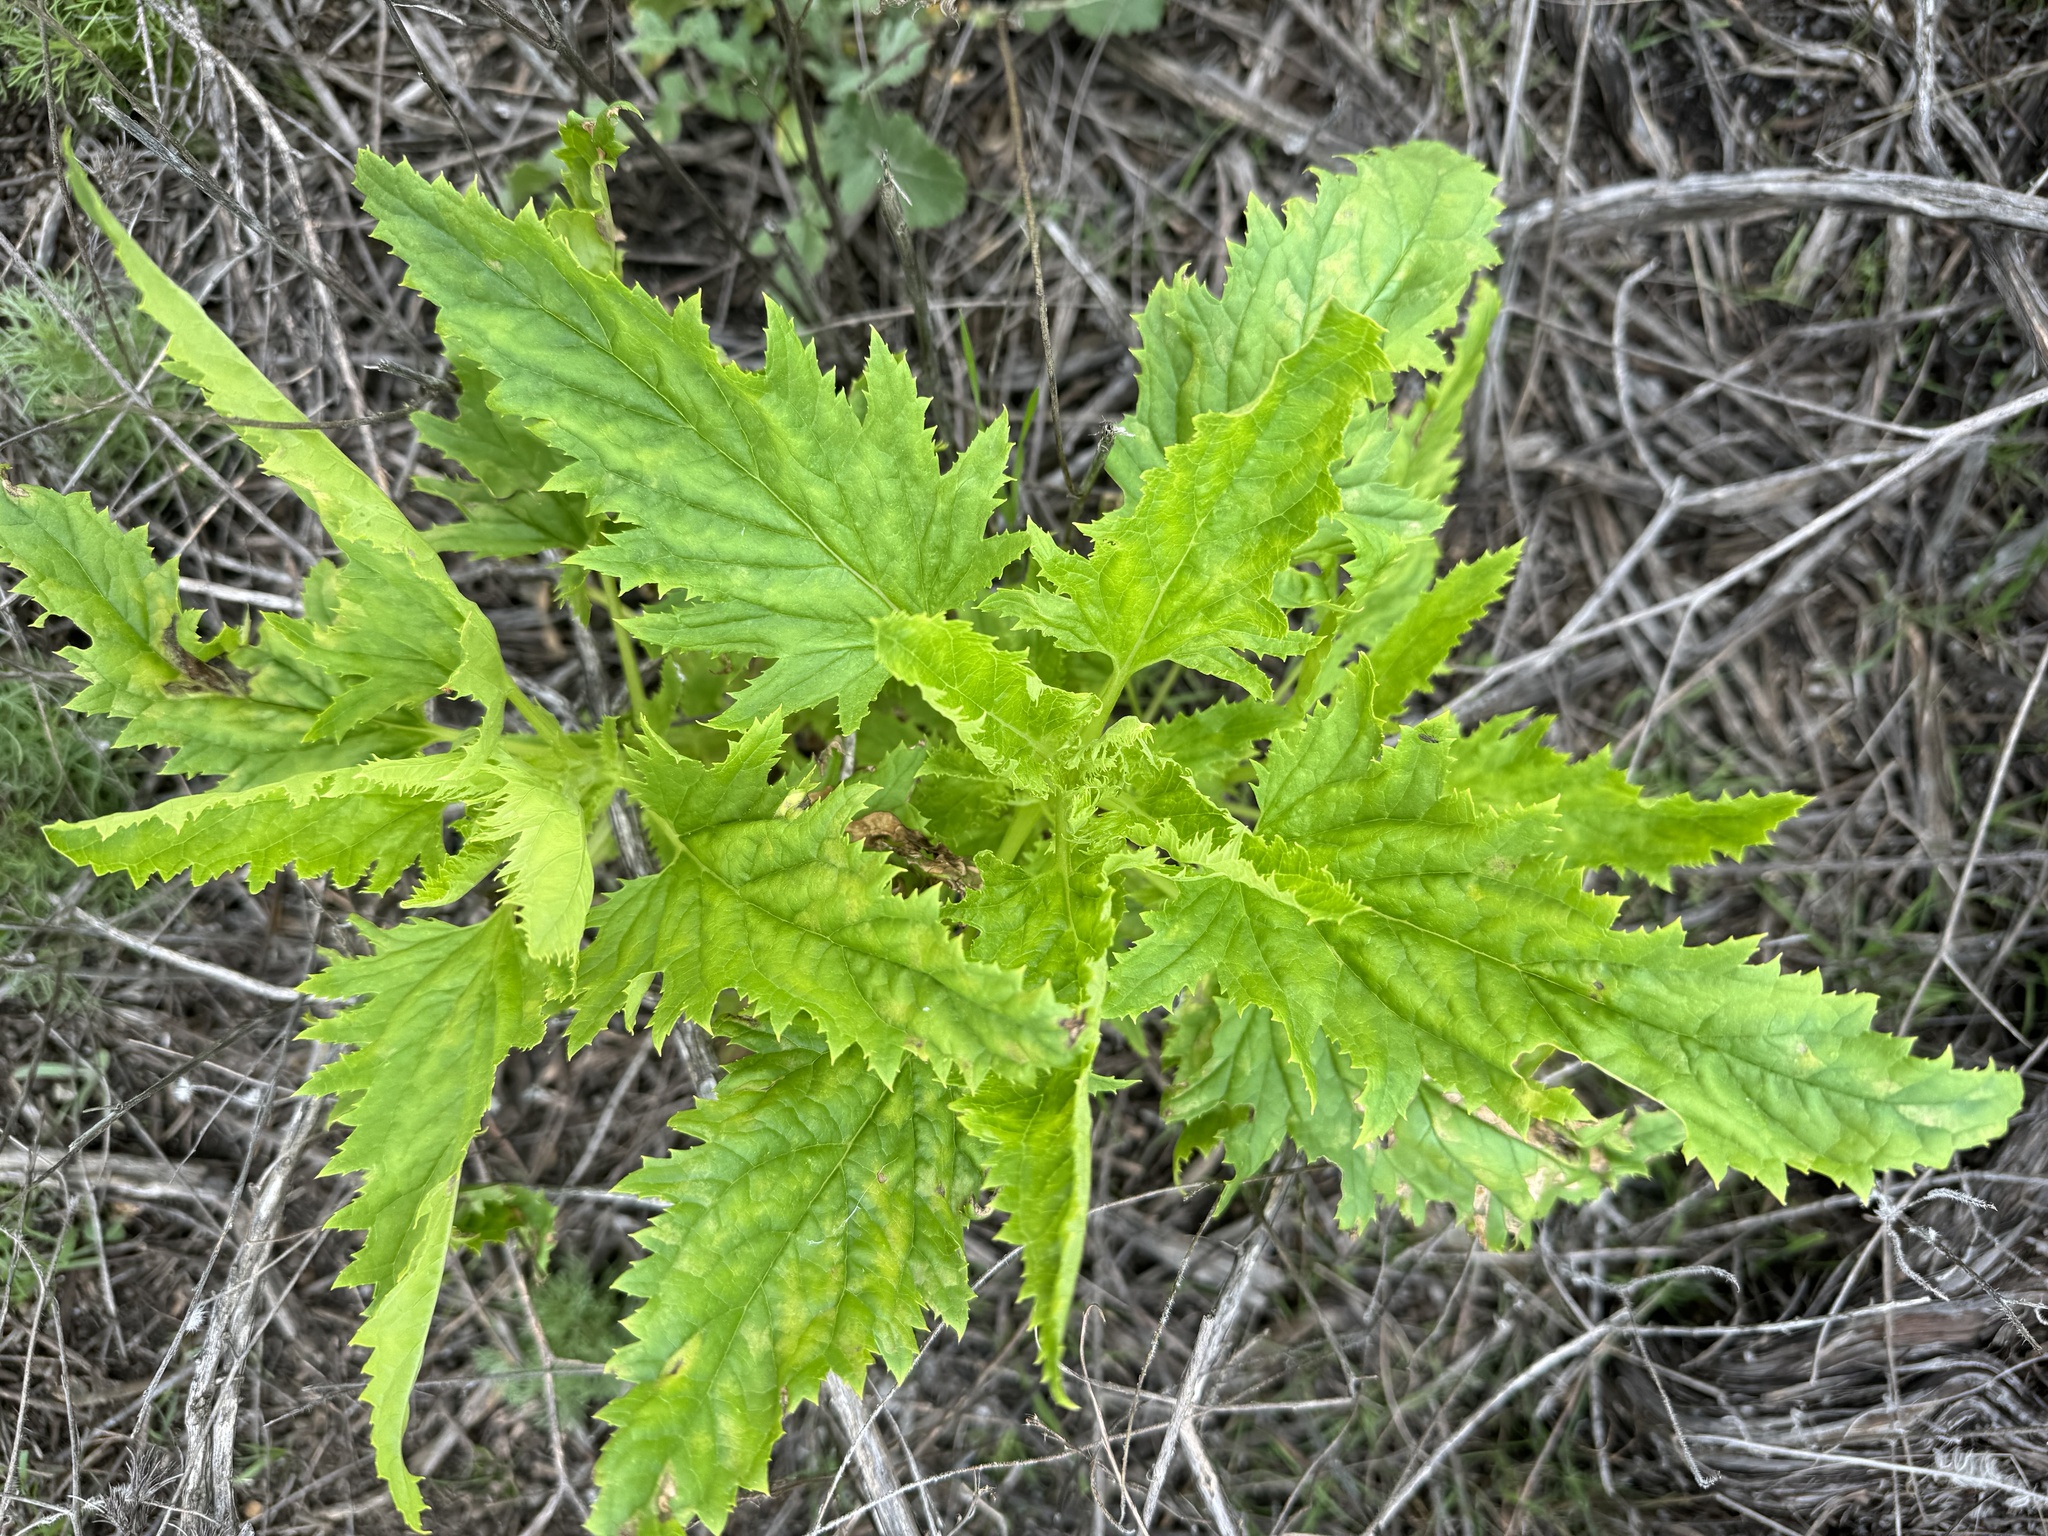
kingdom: Plantae
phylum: Tracheophyta
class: Magnoliopsida
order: Lamiales
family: Scrophulariaceae
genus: Scrophularia
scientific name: Scrophularia californica
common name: California figwort
